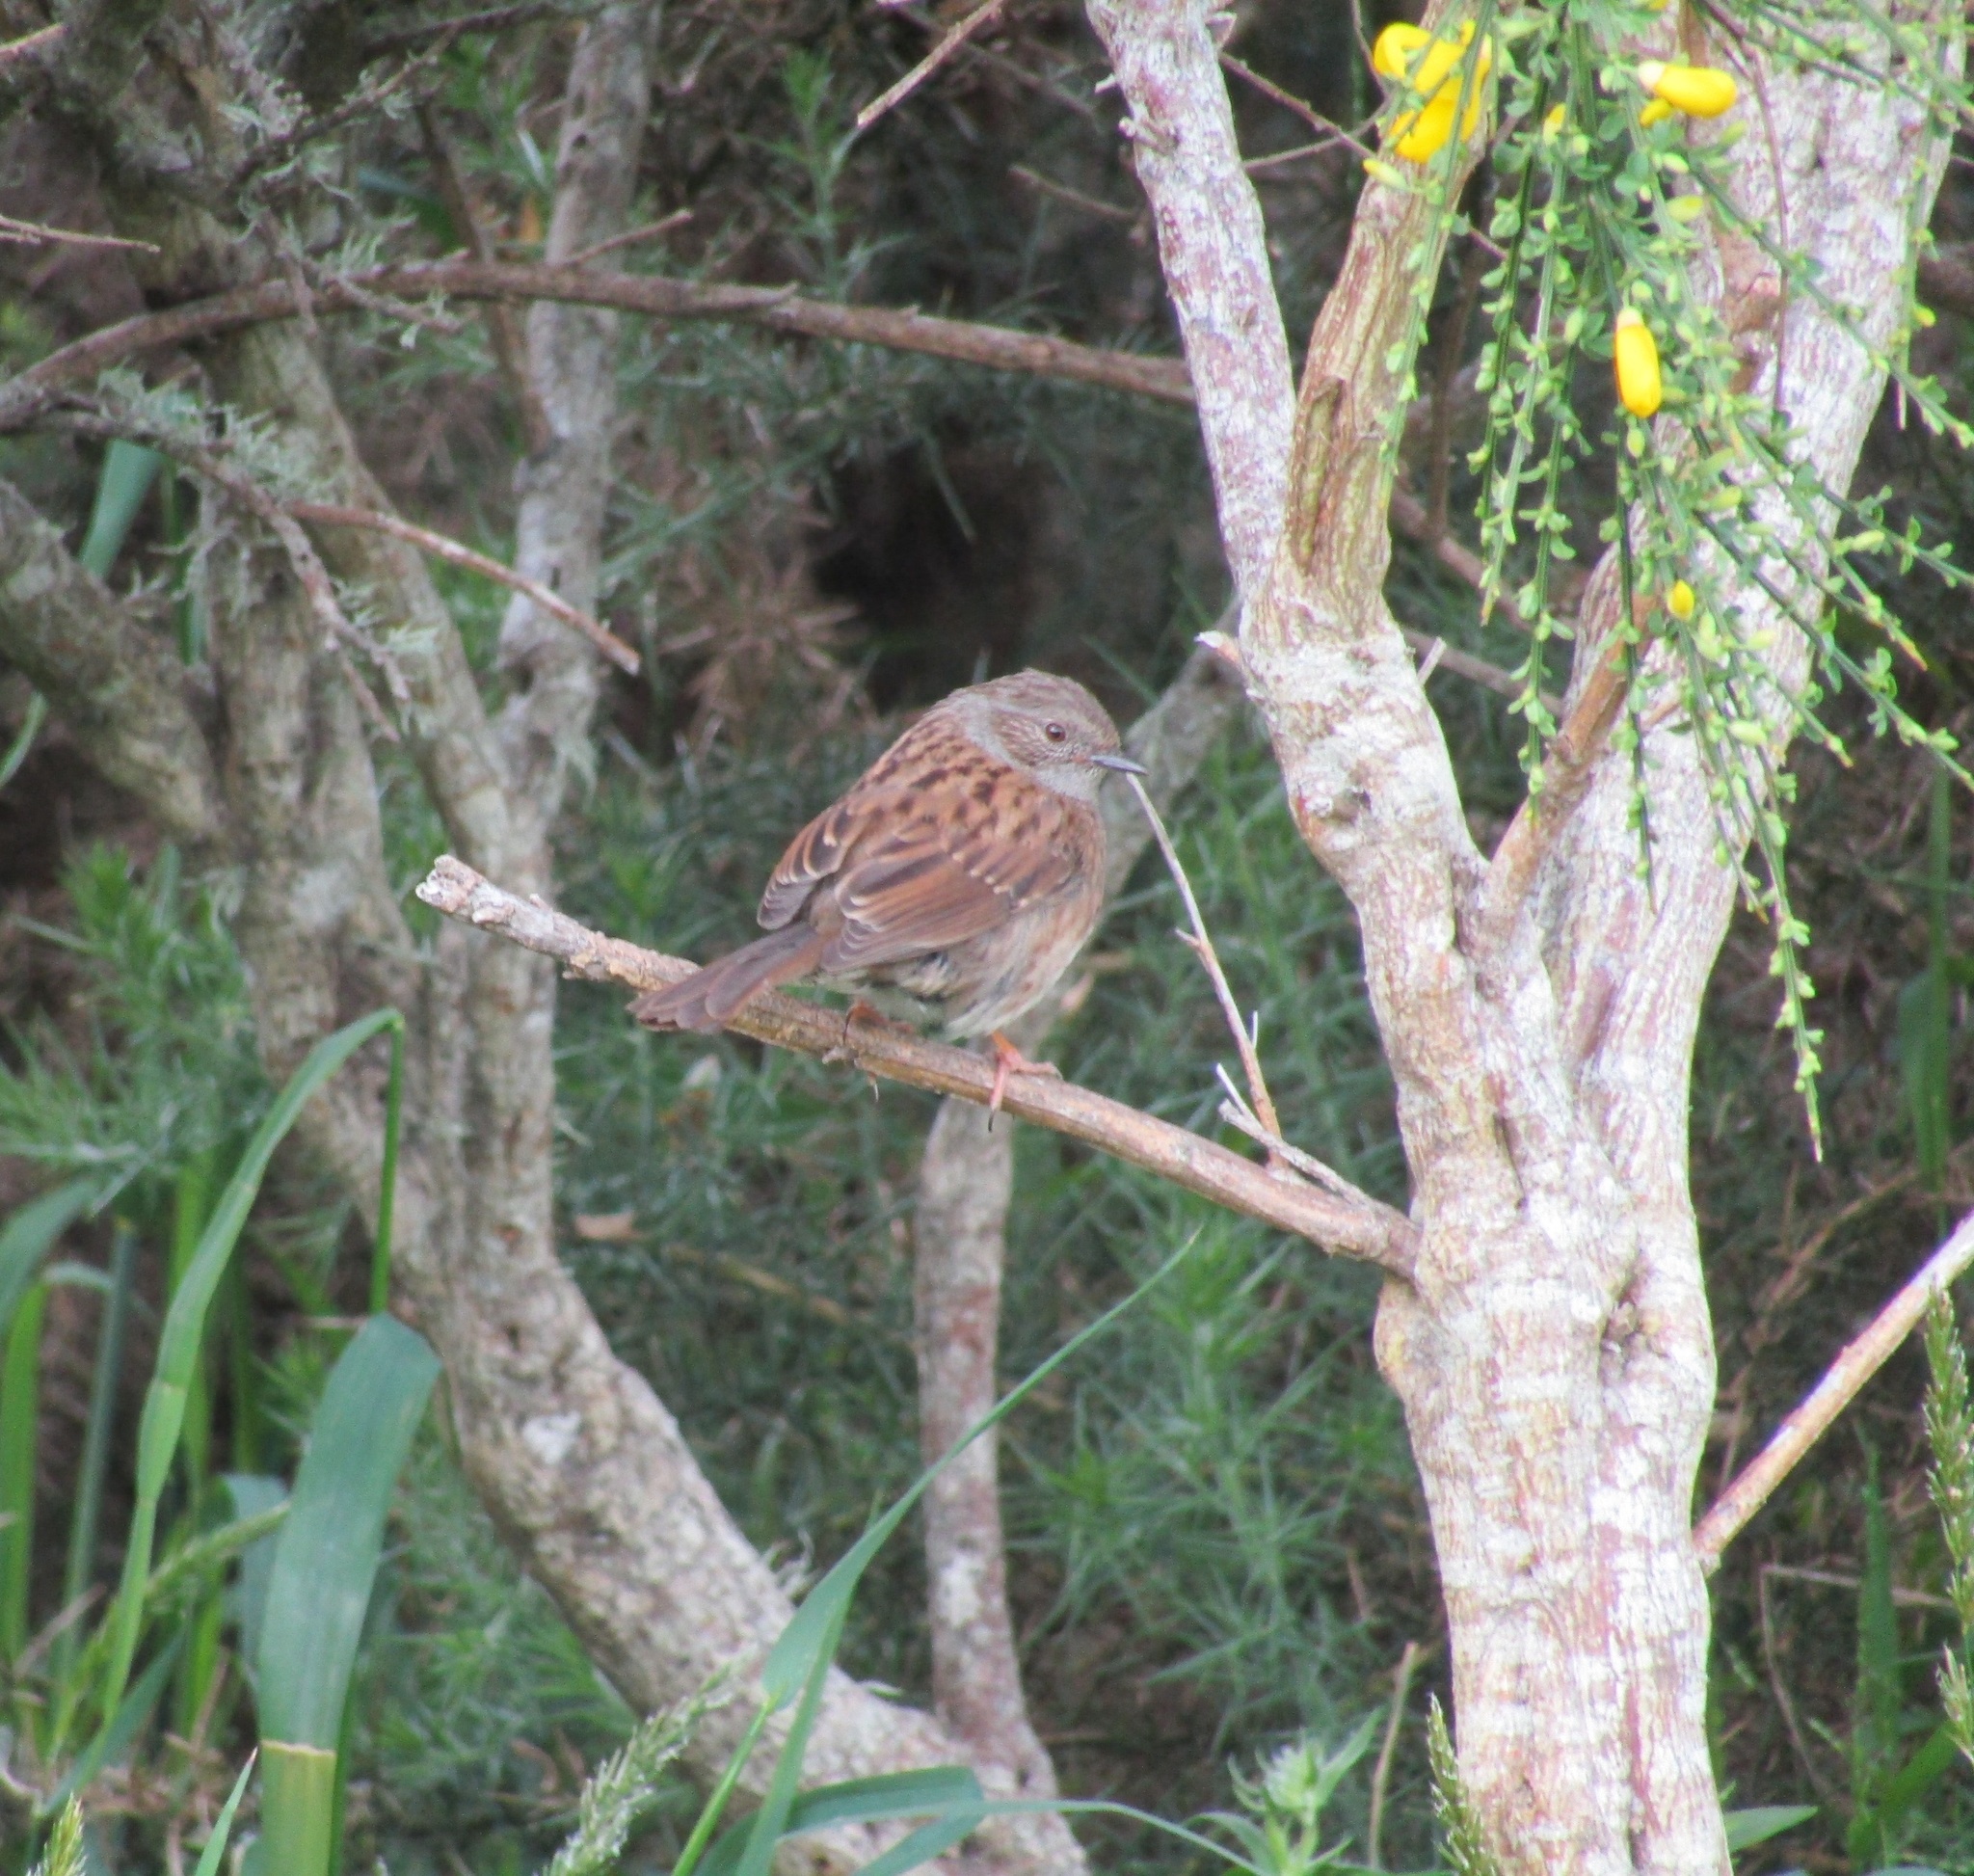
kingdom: Animalia
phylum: Chordata
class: Aves
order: Passeriformes
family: Prunellidae
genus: Prunella
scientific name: Prunella modularis
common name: Dunnock
